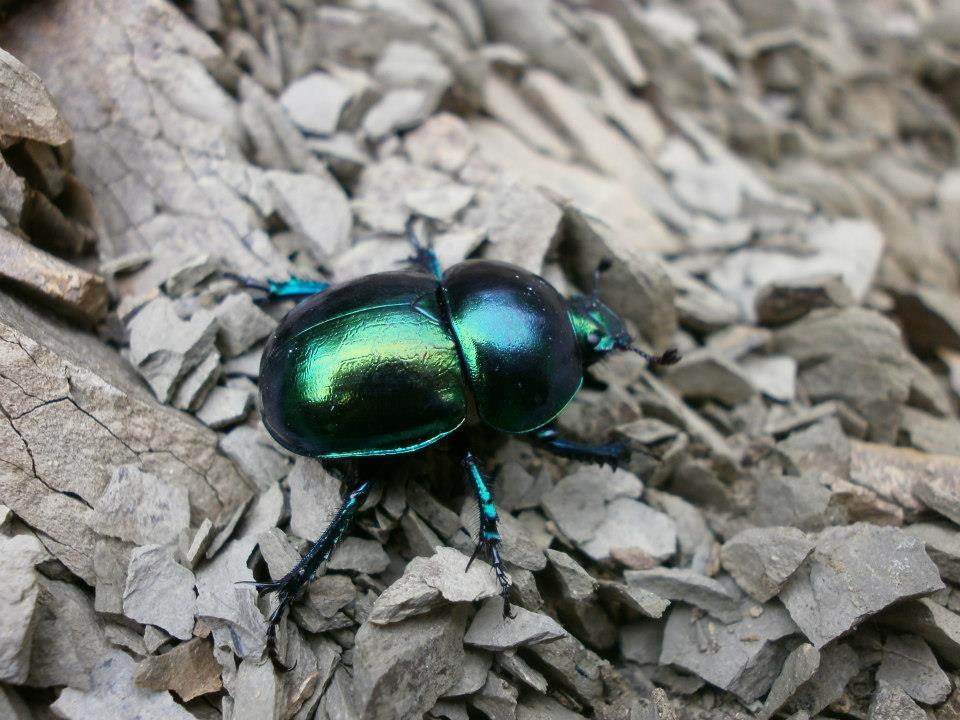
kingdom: Animalia
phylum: Arthropoda
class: Insecta
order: Coleoptera
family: Geotrupidae
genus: Trypocopris
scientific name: Trypocopris vernalis
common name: Spring dumbledor
